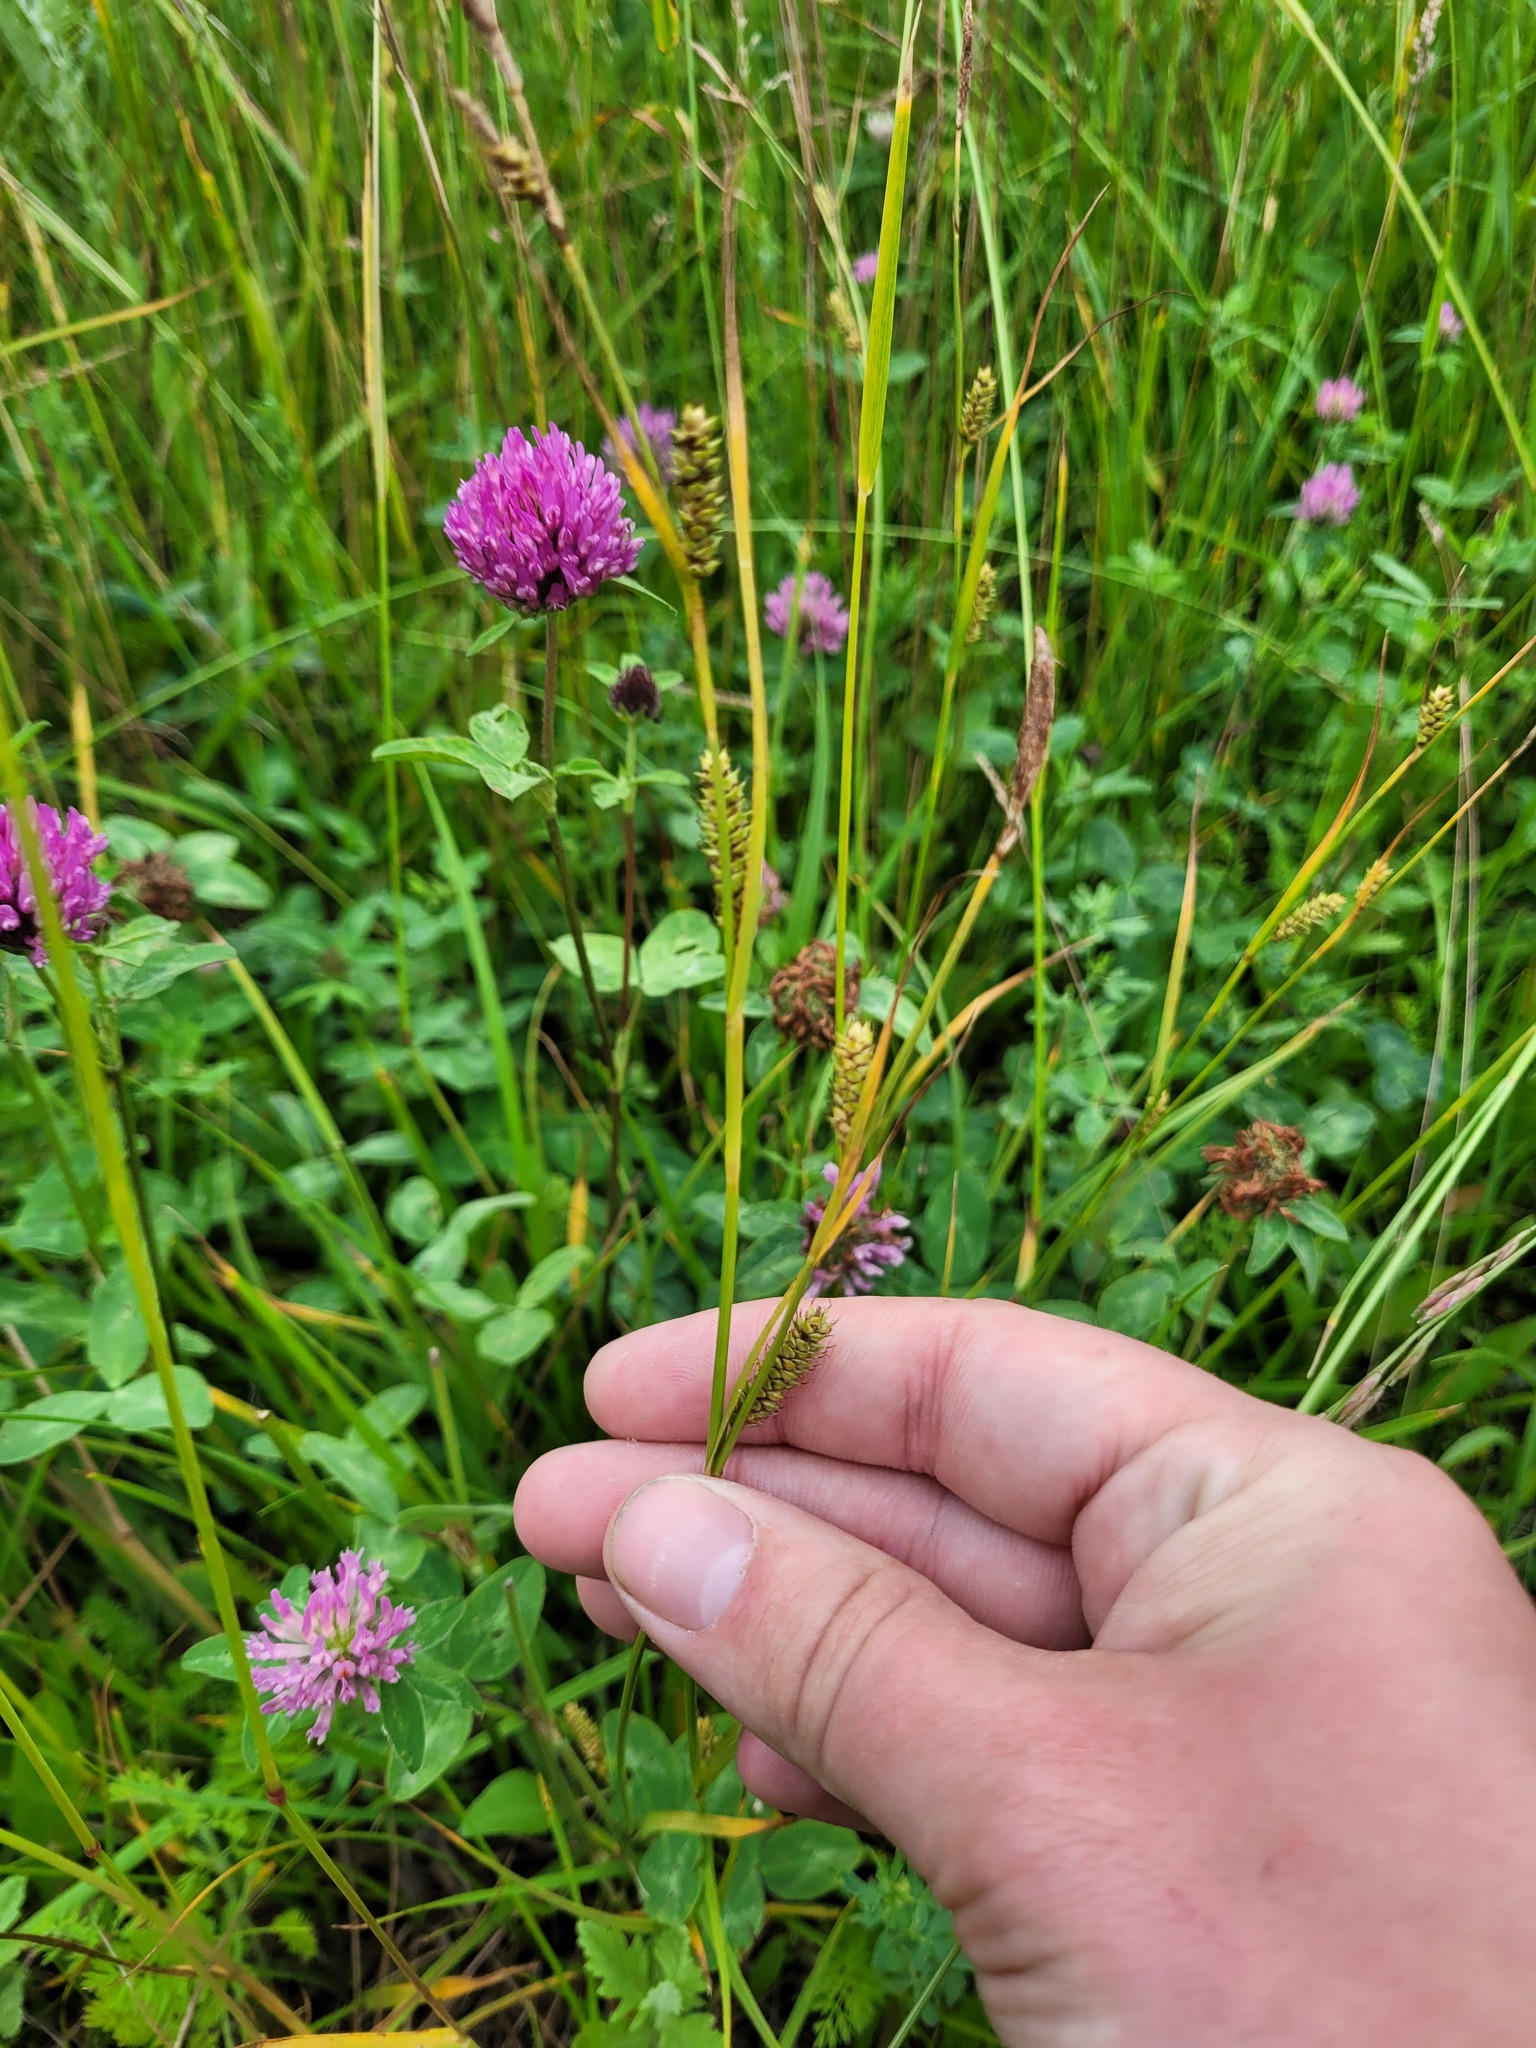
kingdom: Plantae
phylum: Tracheophyta
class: Liliopsida
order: Poales
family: Cyperaceae
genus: Carex
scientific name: Carex distans
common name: Distant sedge
